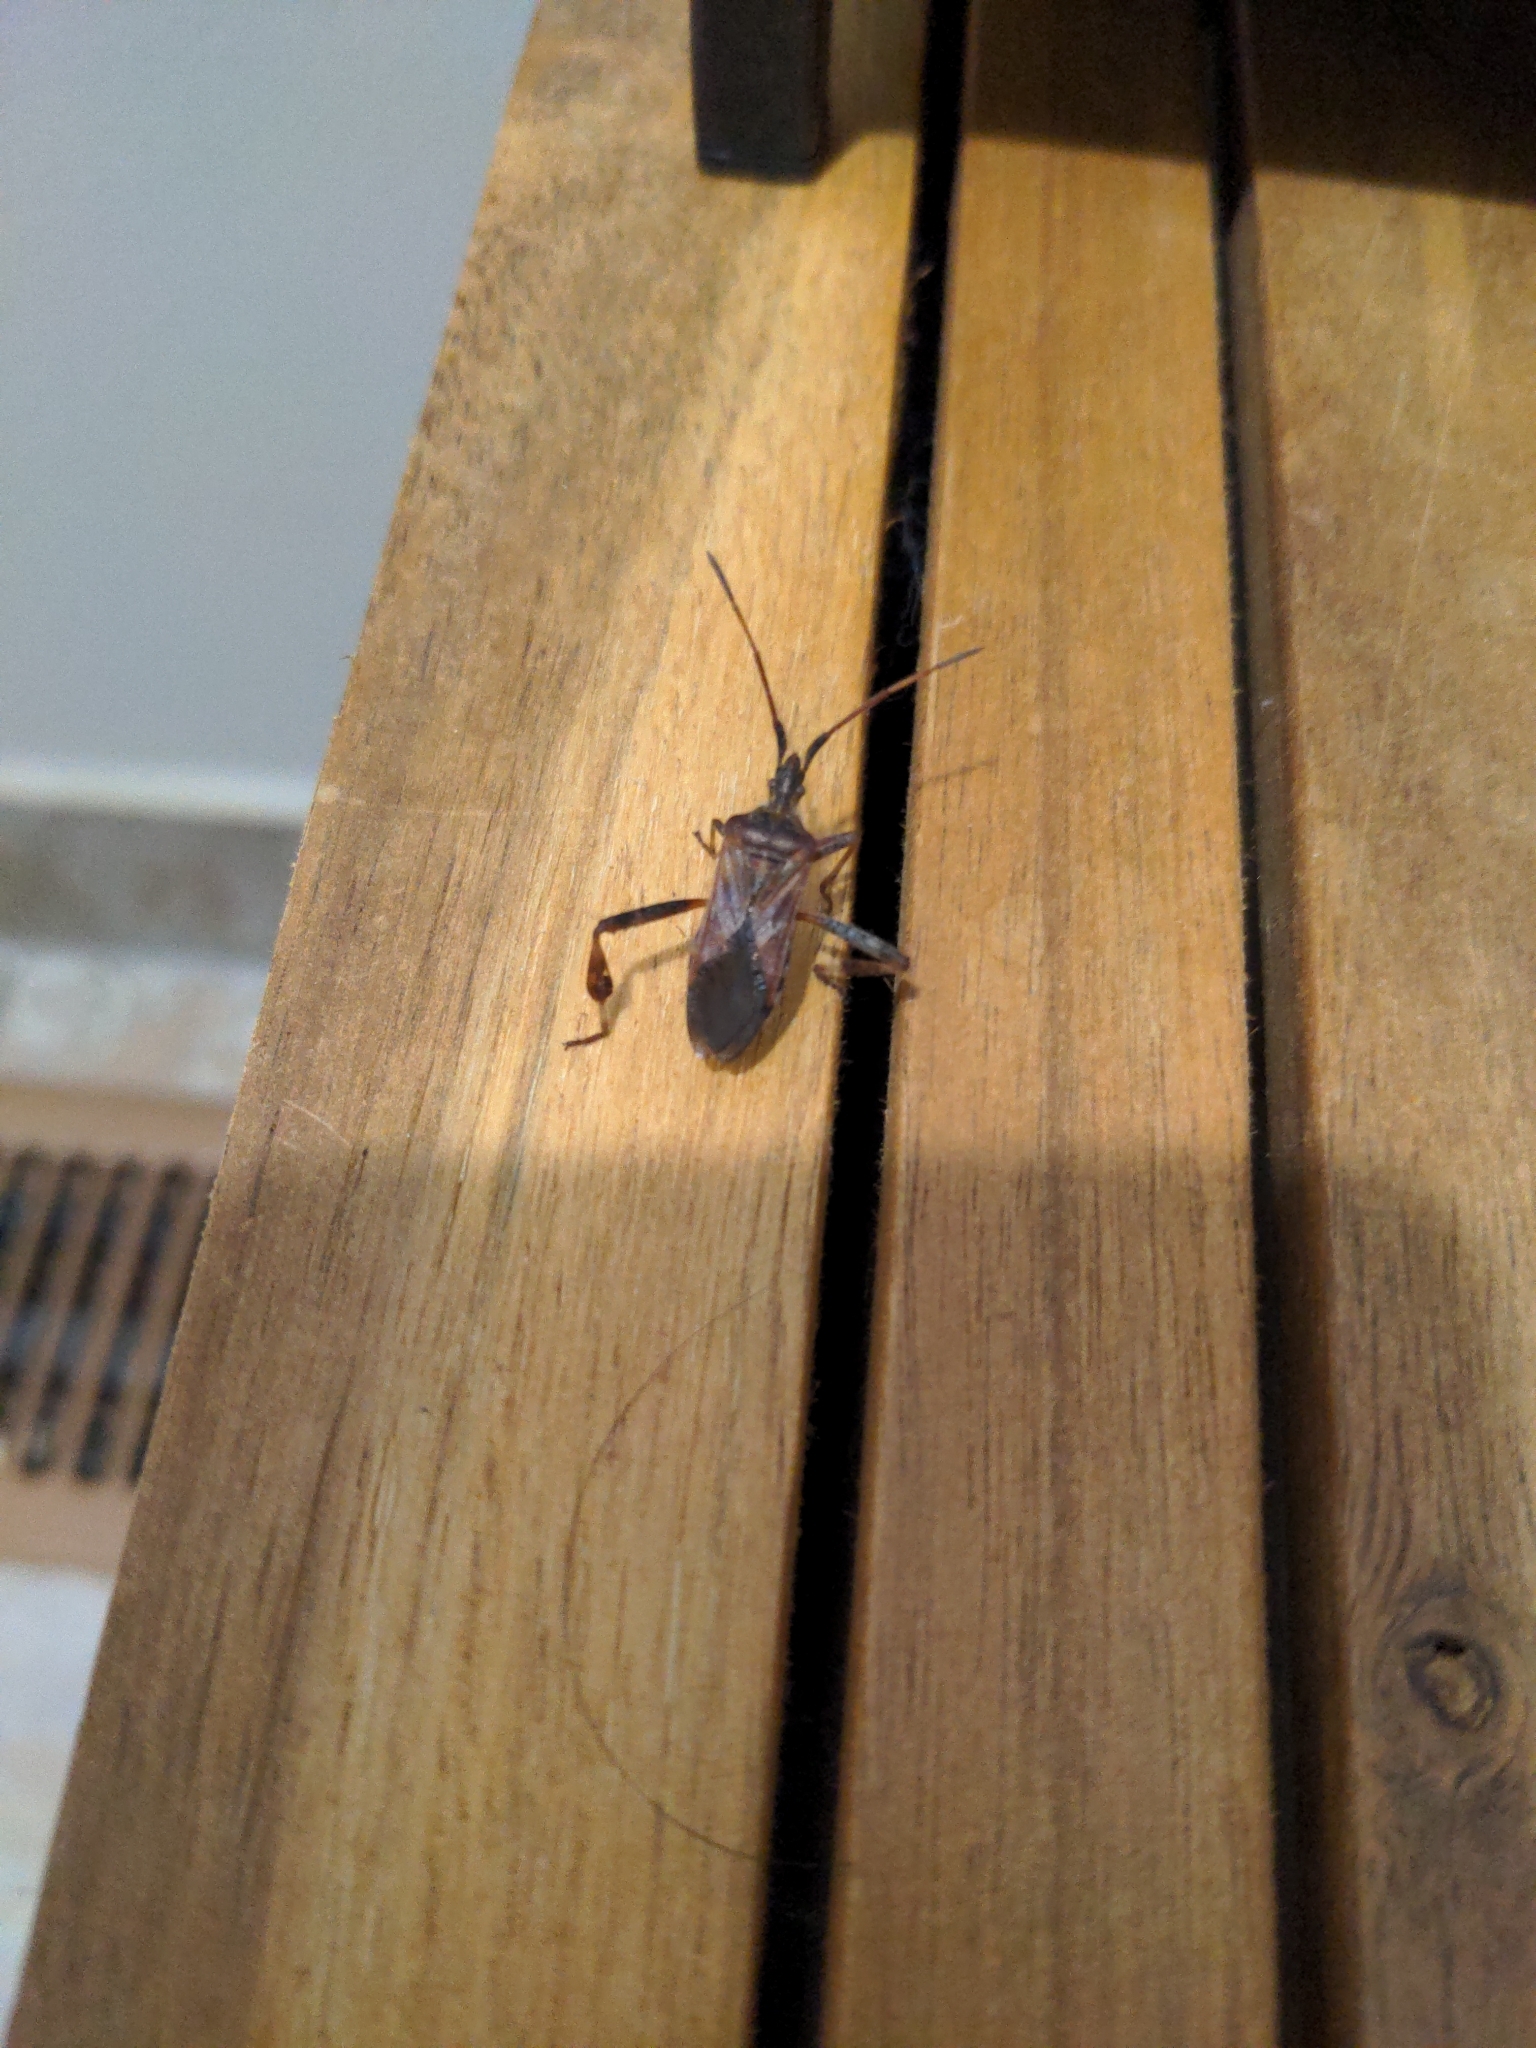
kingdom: Animalia
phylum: Arthropoda
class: Insecta
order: Hemiptera
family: Coreidae
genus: Leptoglossus
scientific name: Leptoglossus occidentalis
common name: Western conifer-seed bug
